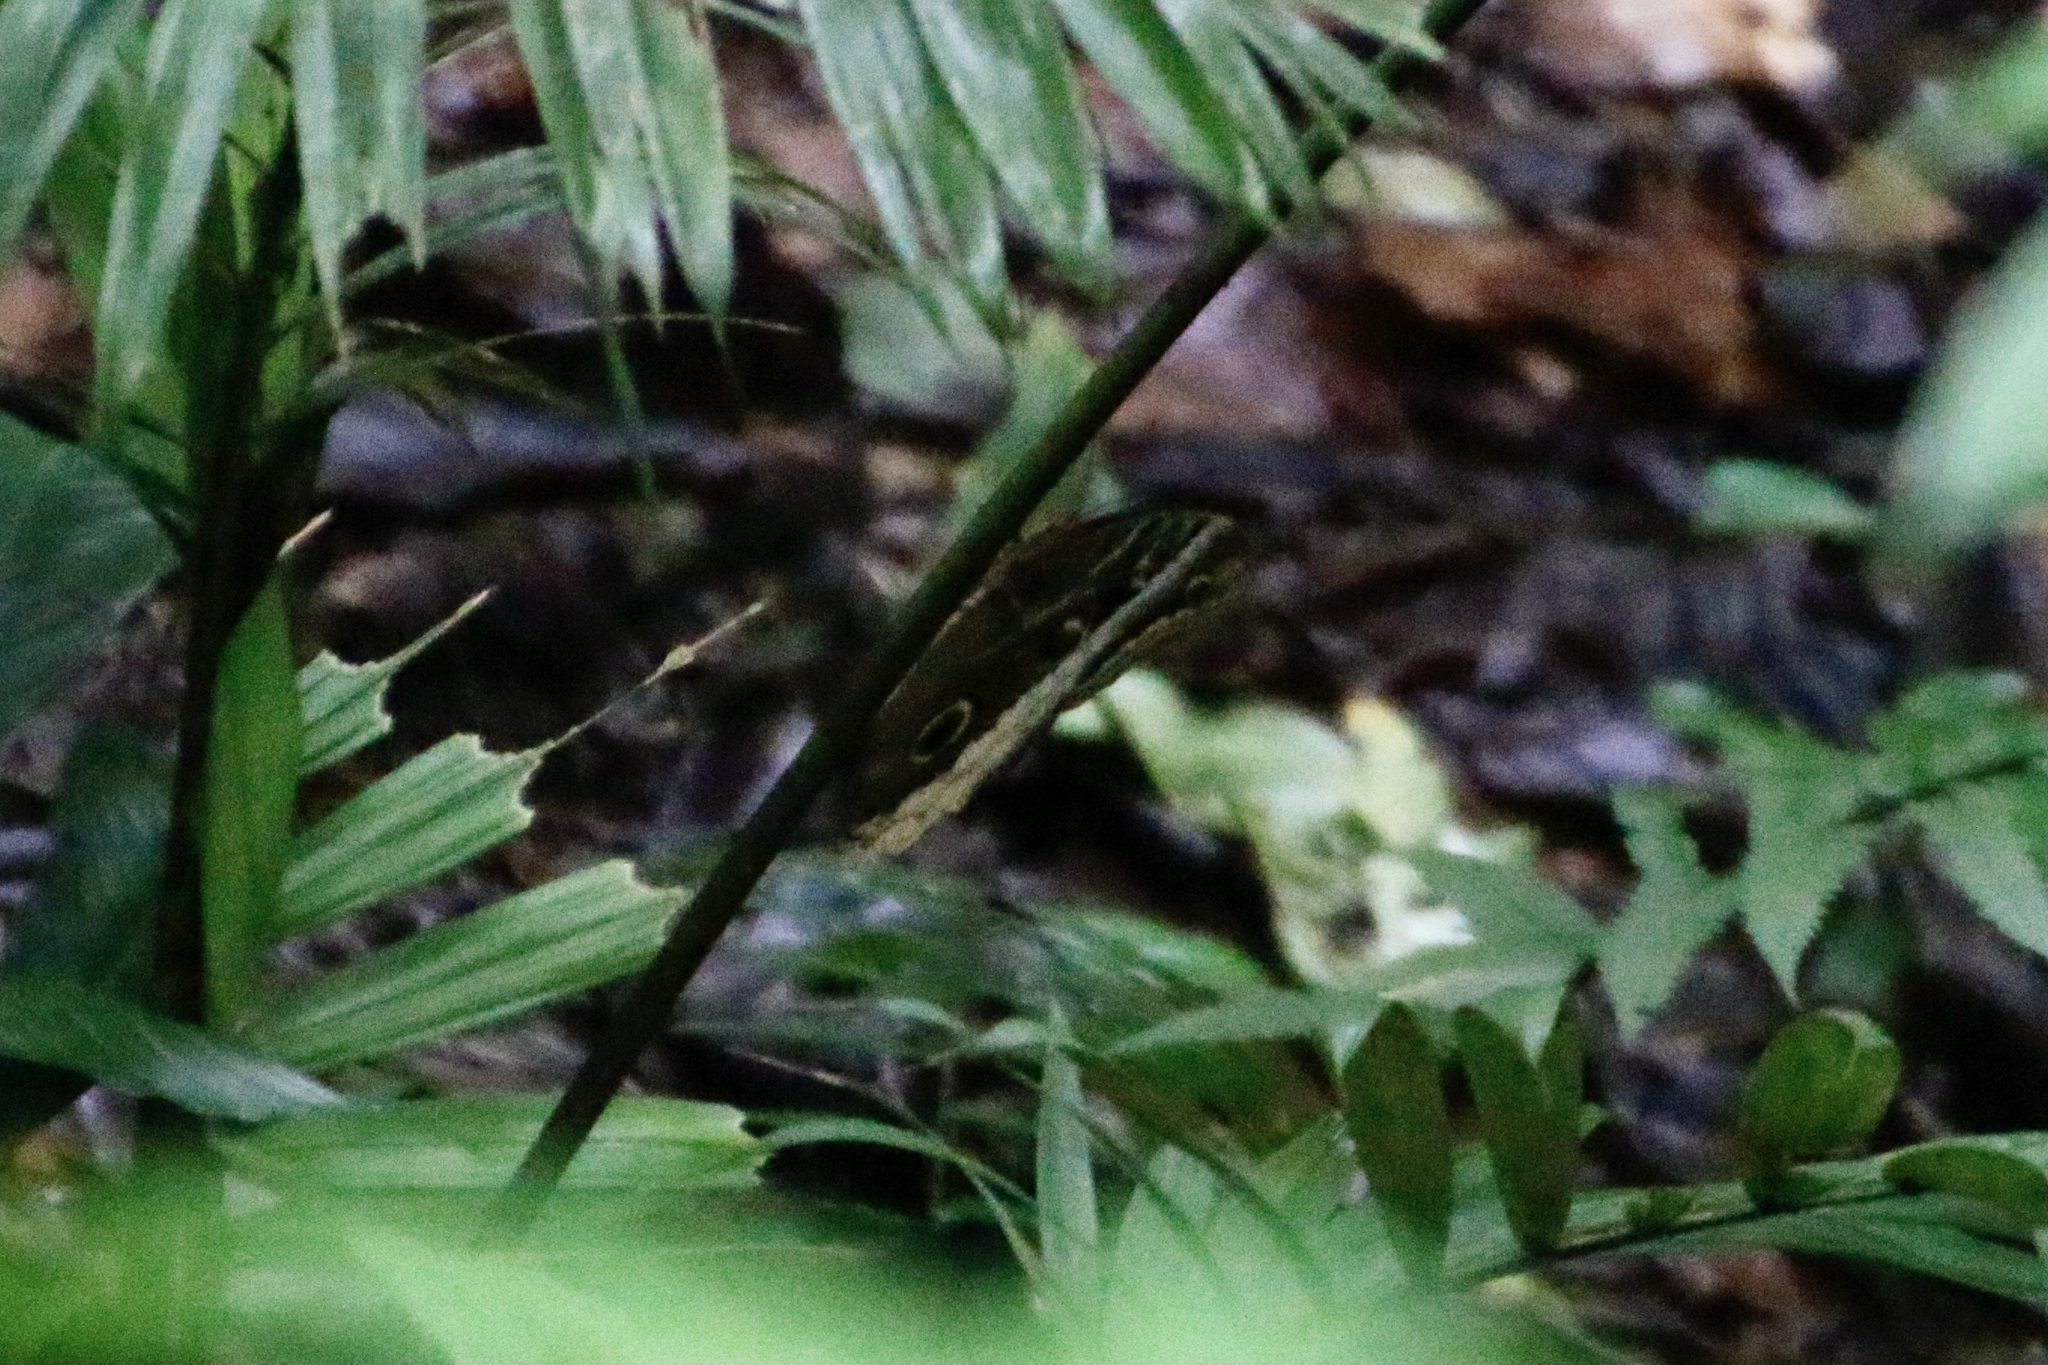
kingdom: Animalia
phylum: Arthropoda
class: Insecta
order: Lepidoptera
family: Nymphalidae
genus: Caligo
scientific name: Caligo atreus
